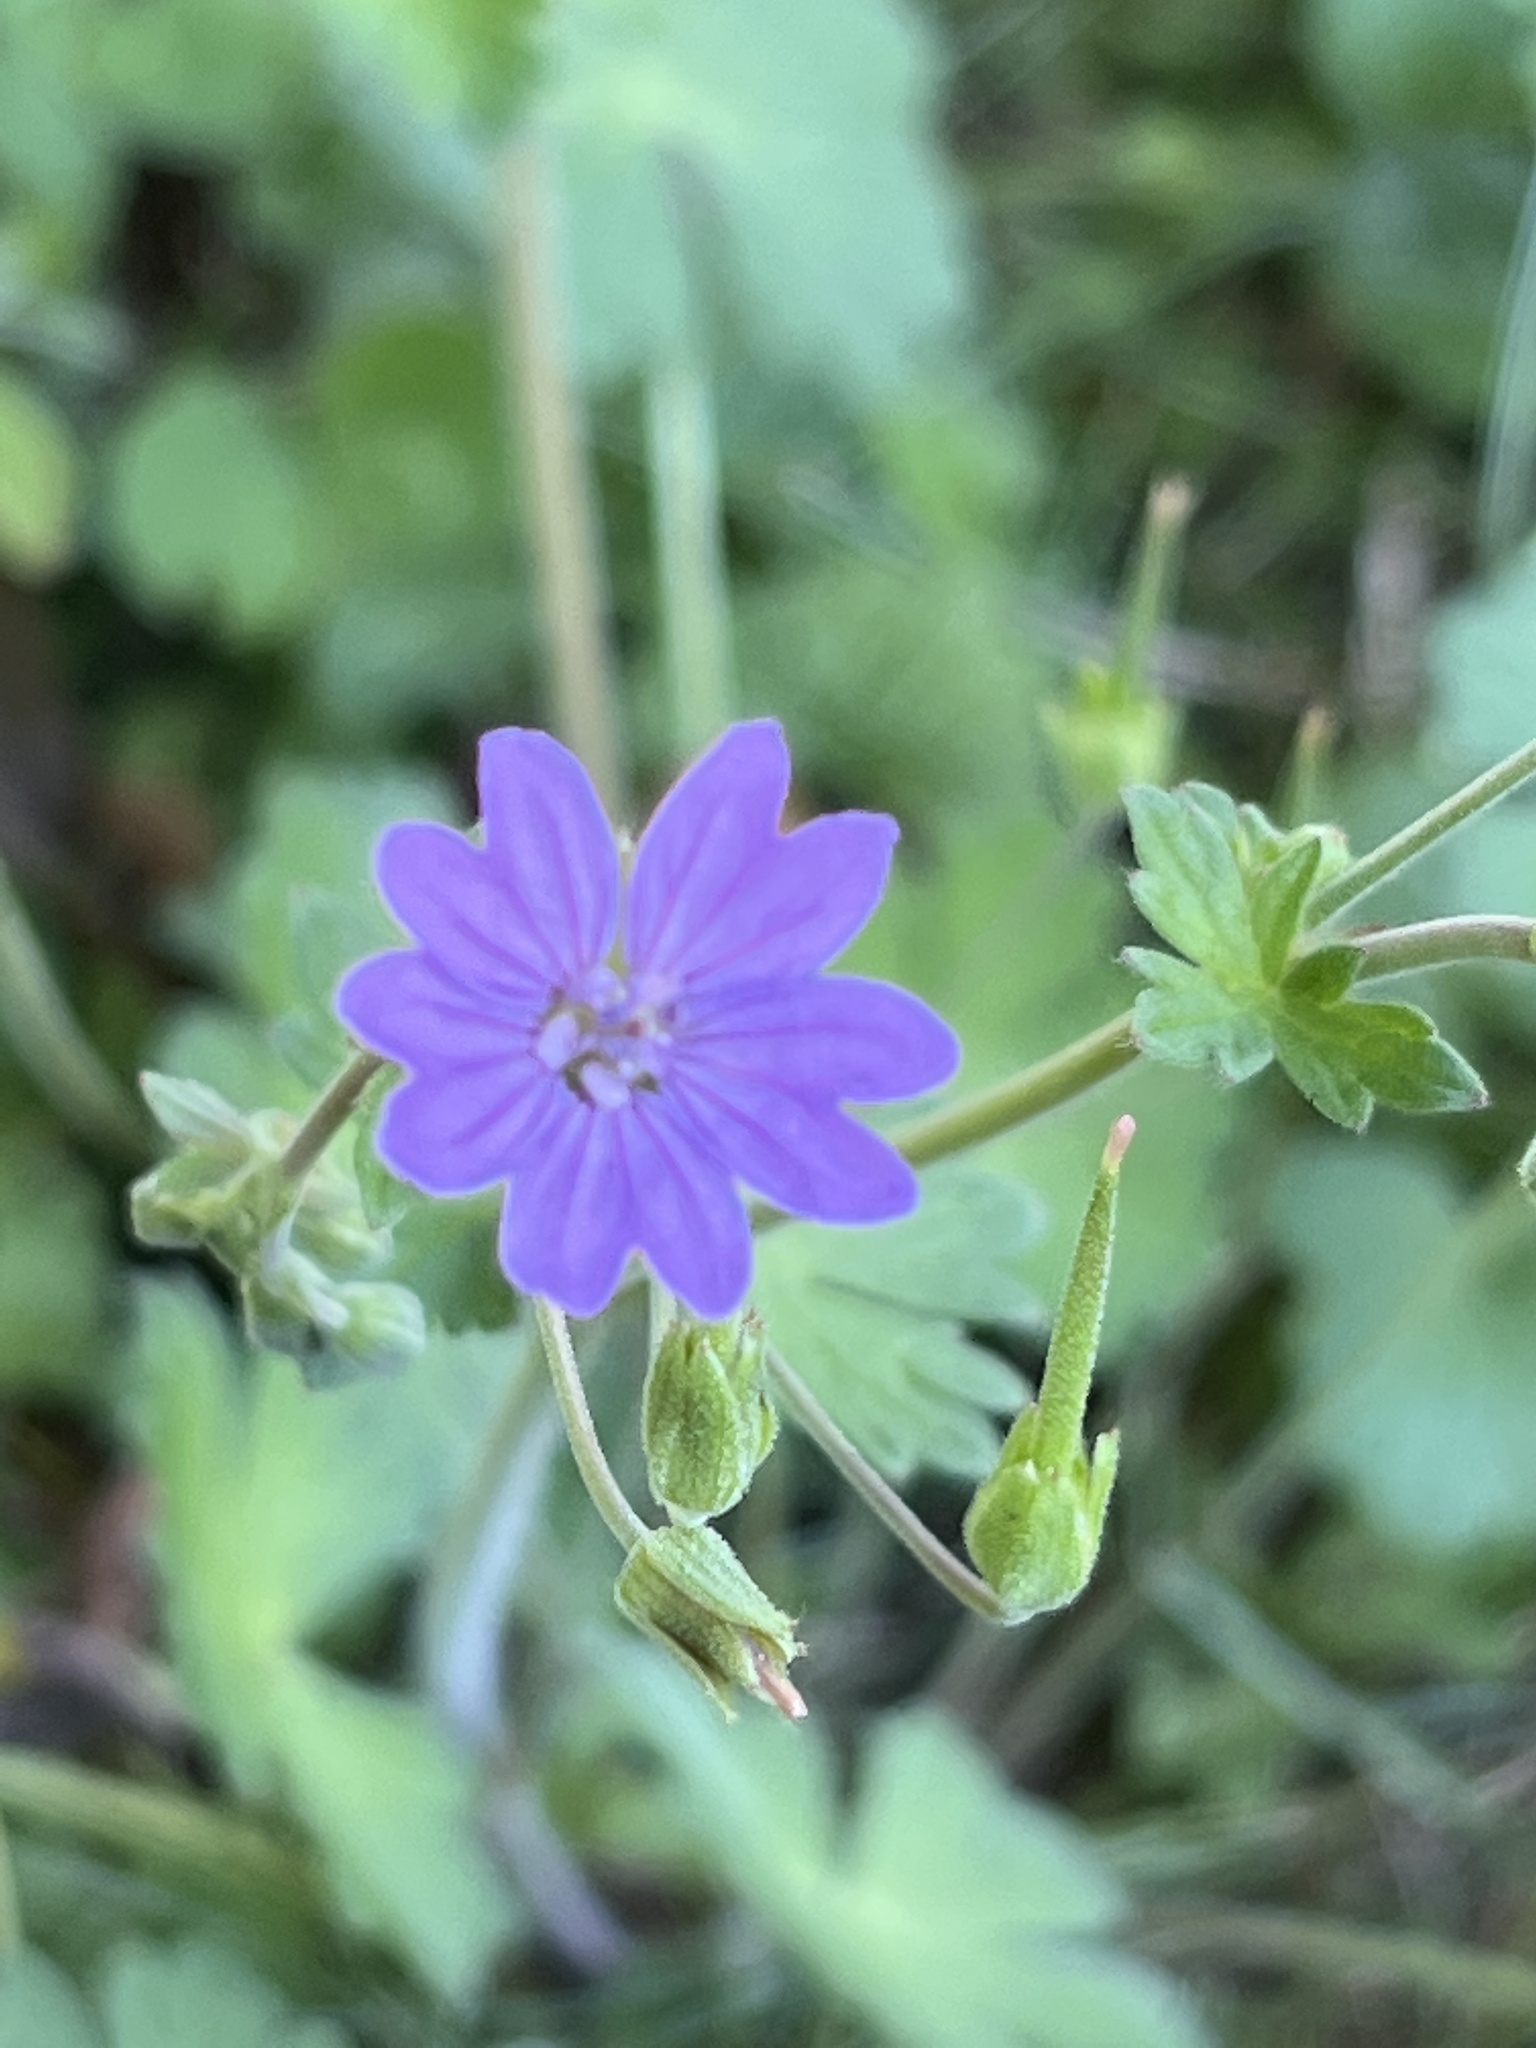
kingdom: Plantae
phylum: Tracheophyta
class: Magnoliopsida
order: Geraniales
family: Geraniaceae
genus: Geranium
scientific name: Geranium pyrenaicum
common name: Hedgerow crane's-bill
